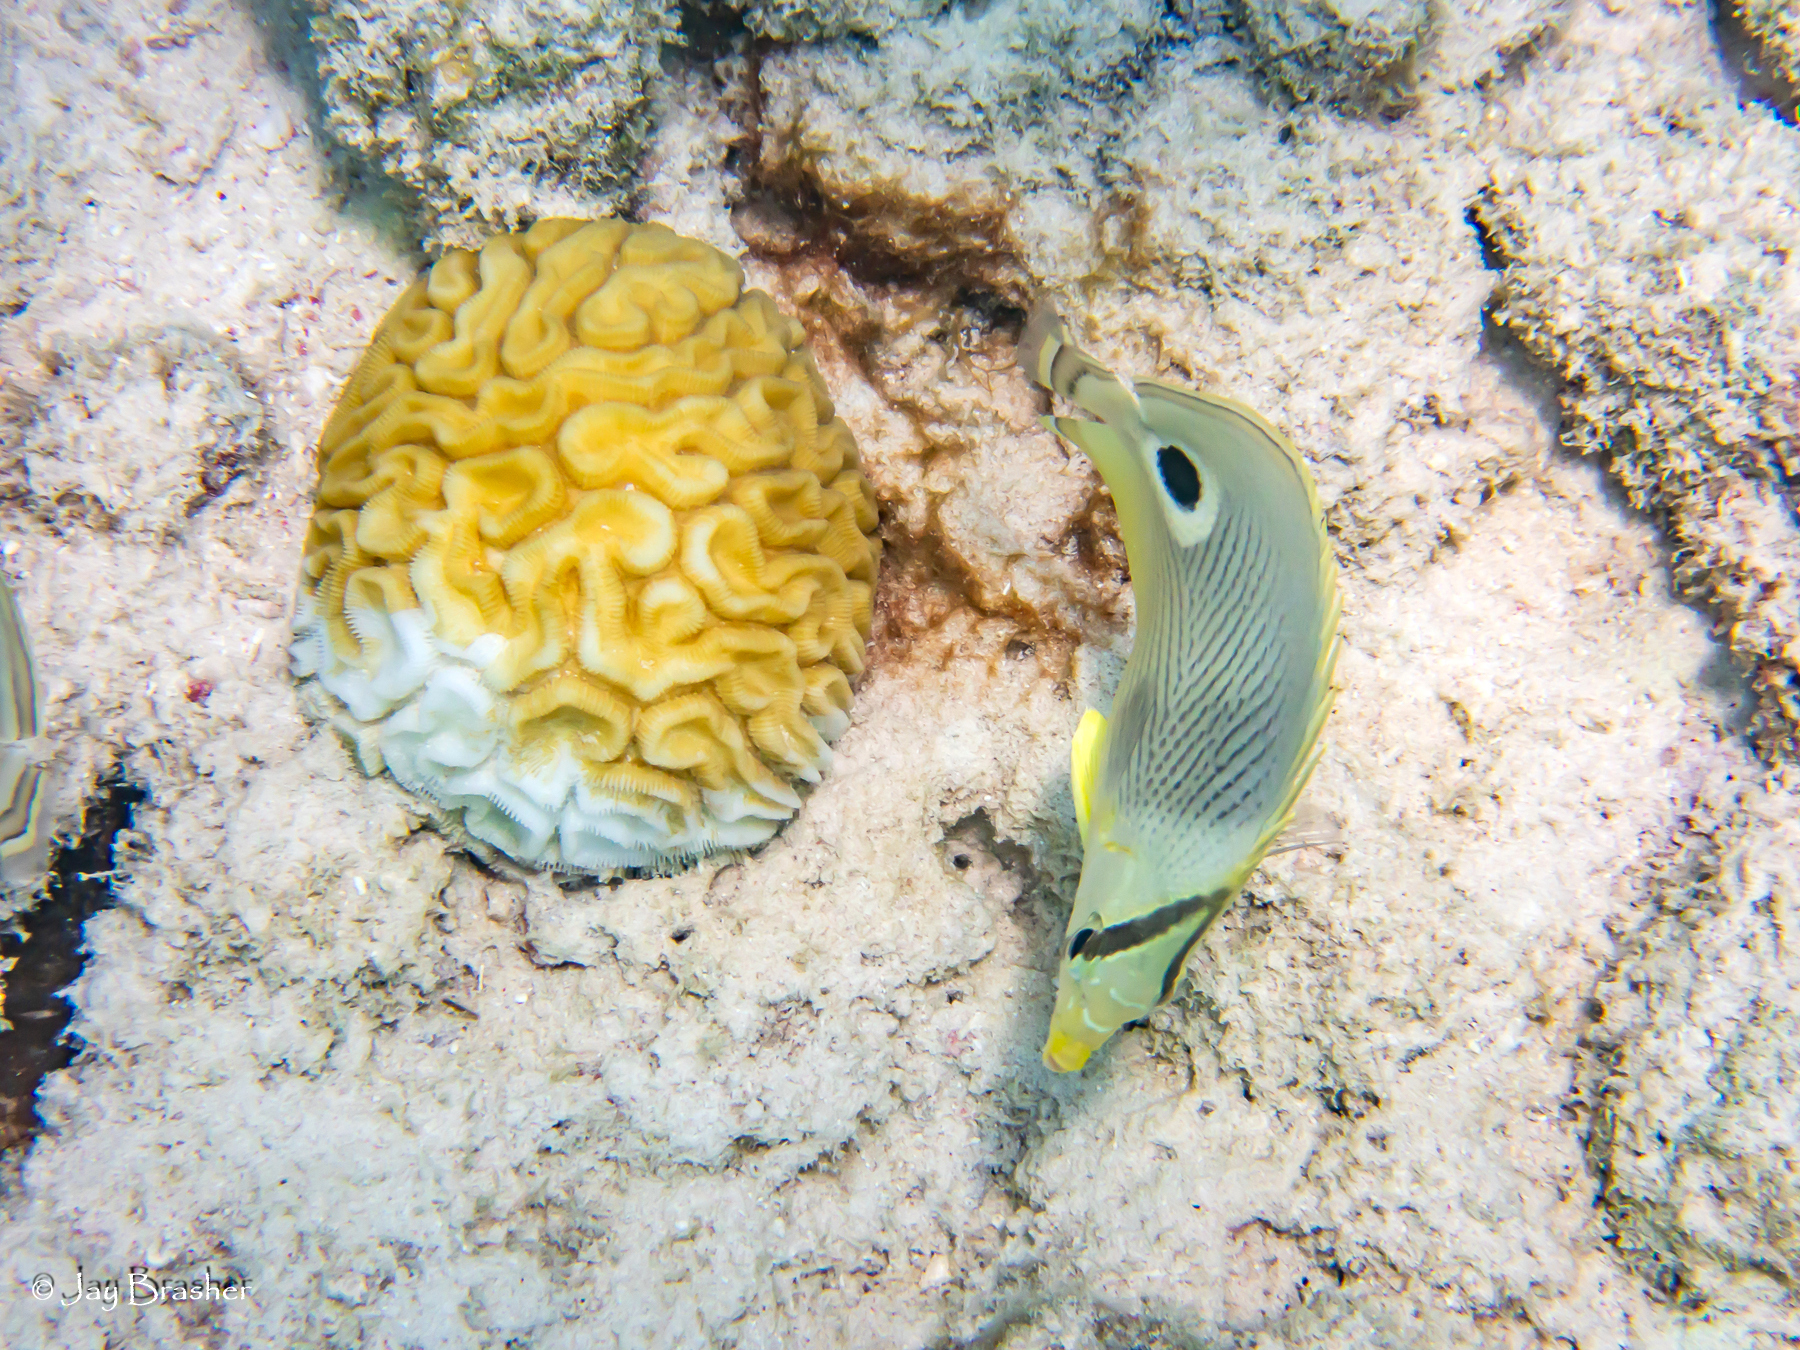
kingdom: Animalia
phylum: Chordata
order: Perciformes
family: Chaetodontidae
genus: Chaetodon
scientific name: Chaetodon capistratus
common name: Kete
